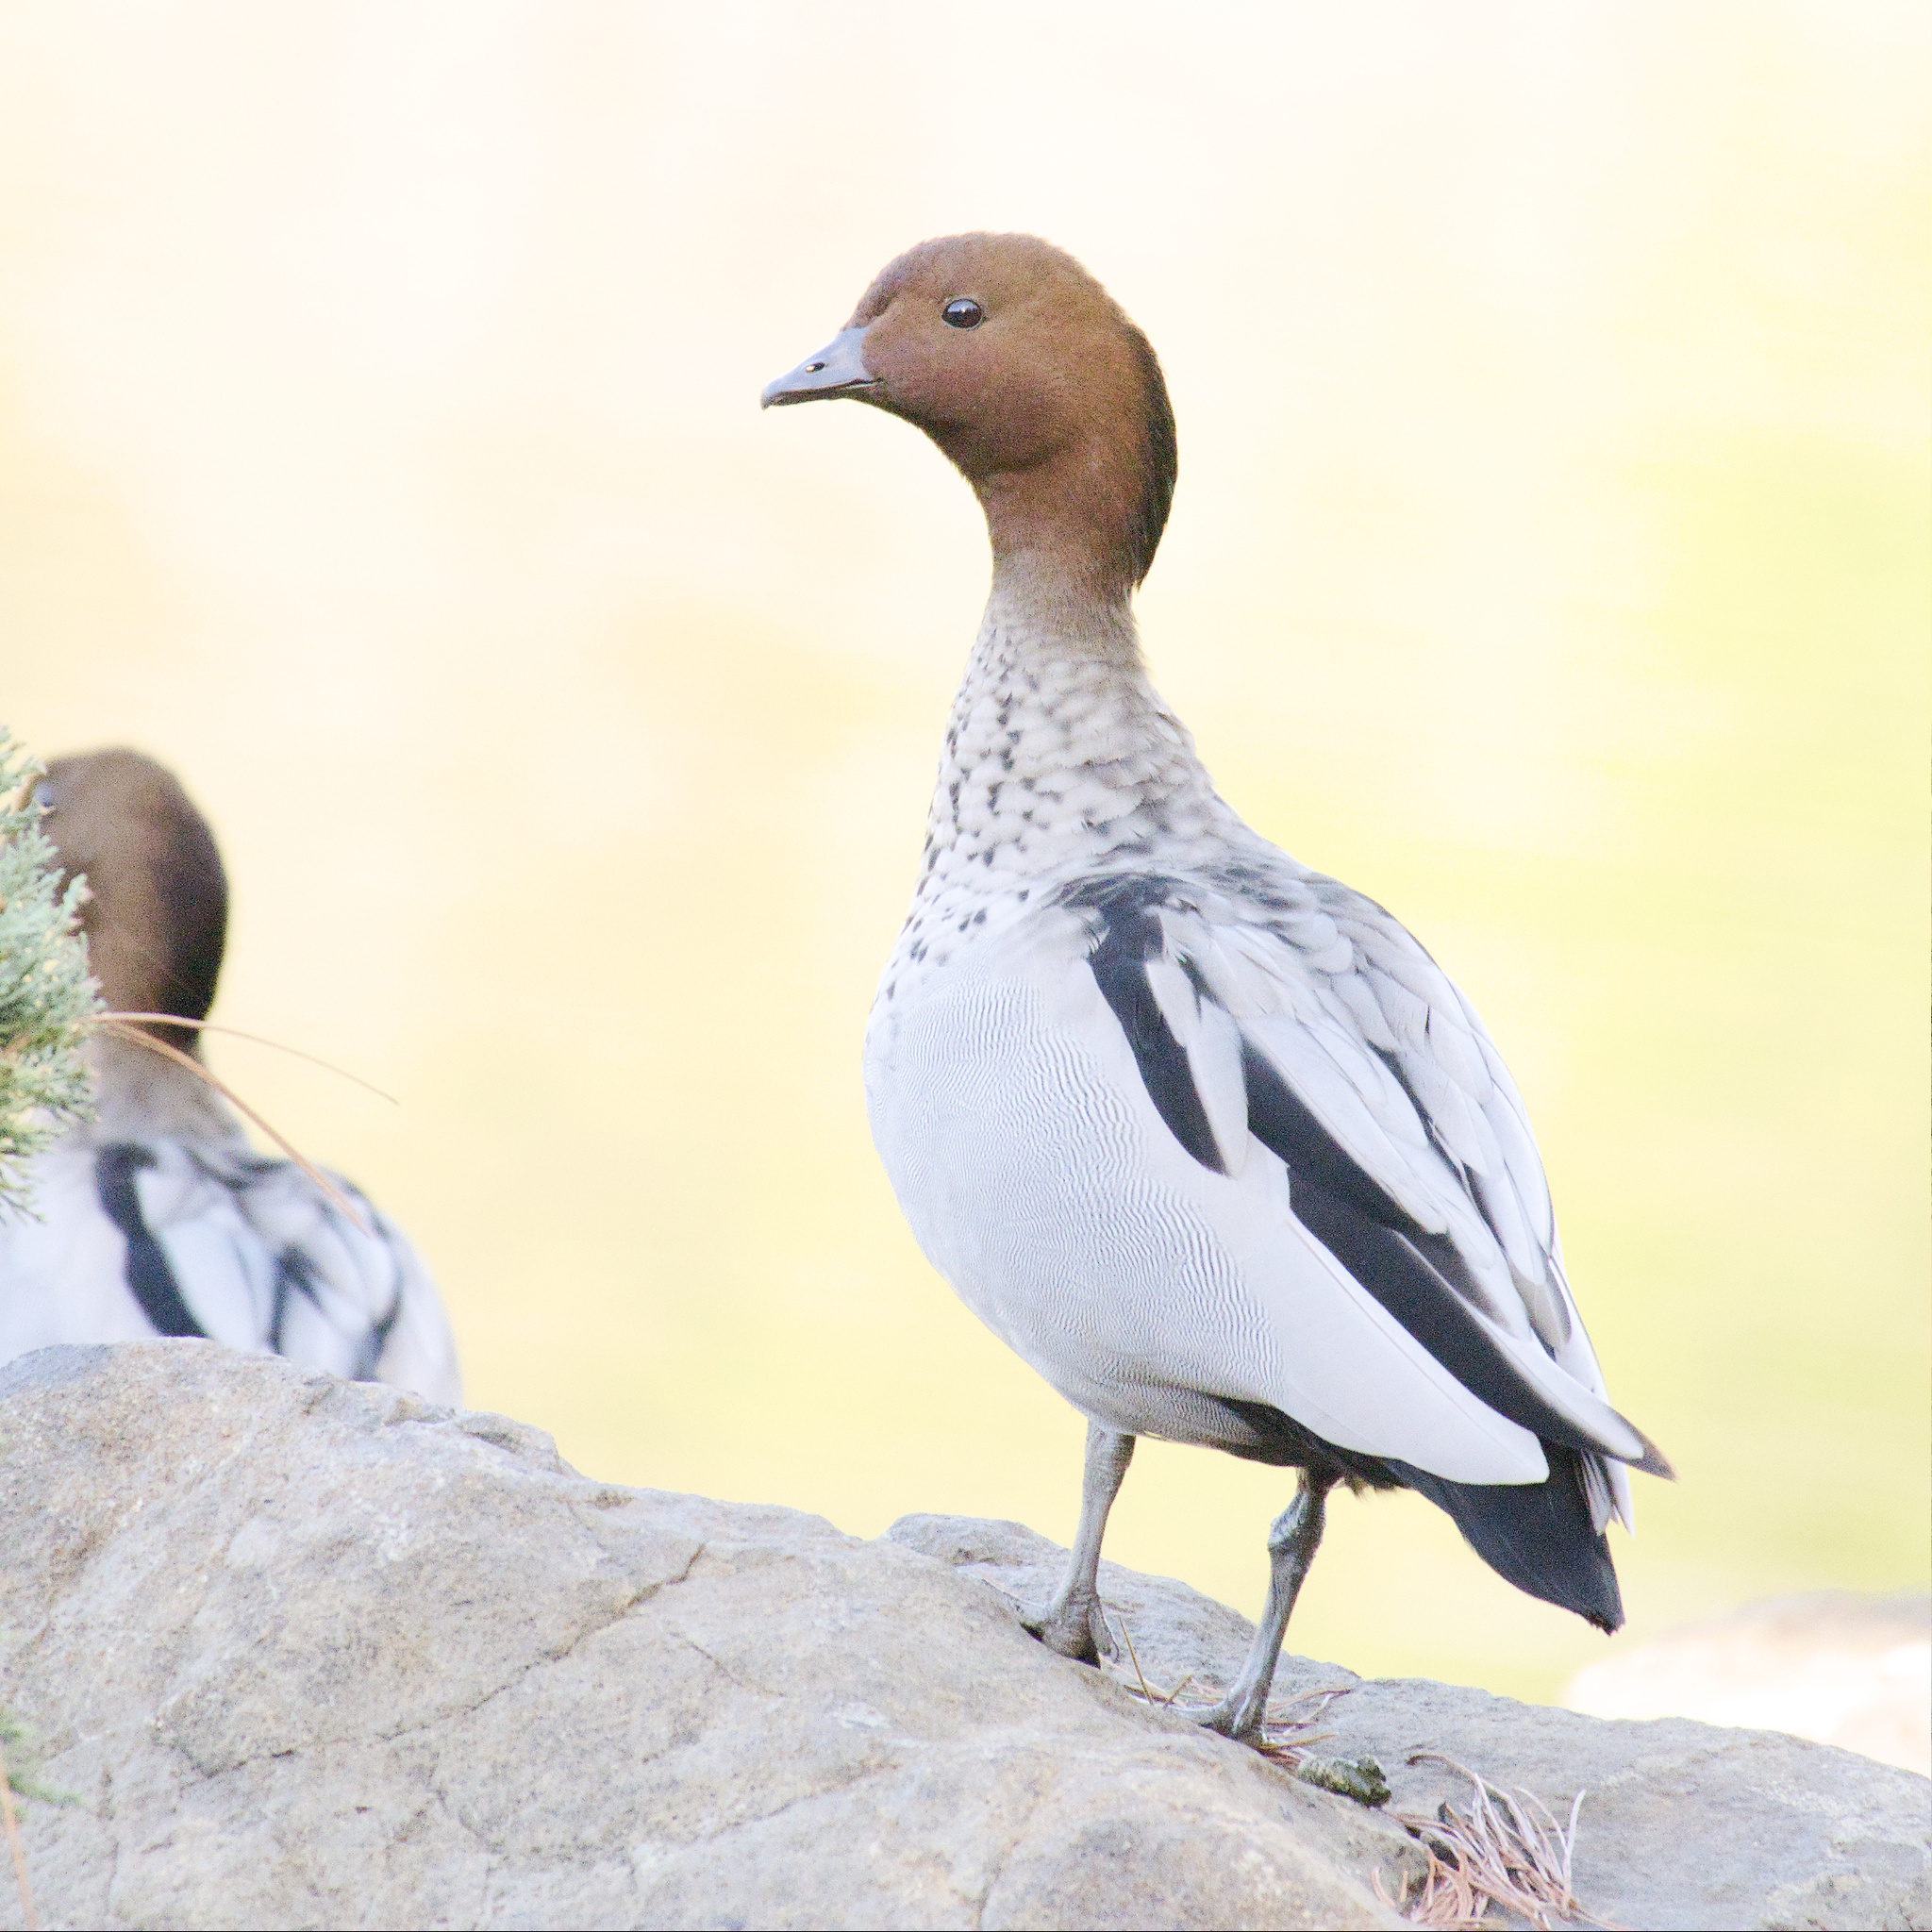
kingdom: Animalia
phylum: Chordata
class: Aves
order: Anseriformes
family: Anatidae
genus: Chenonetta
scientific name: Chenonetta jubata
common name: Maned duck
